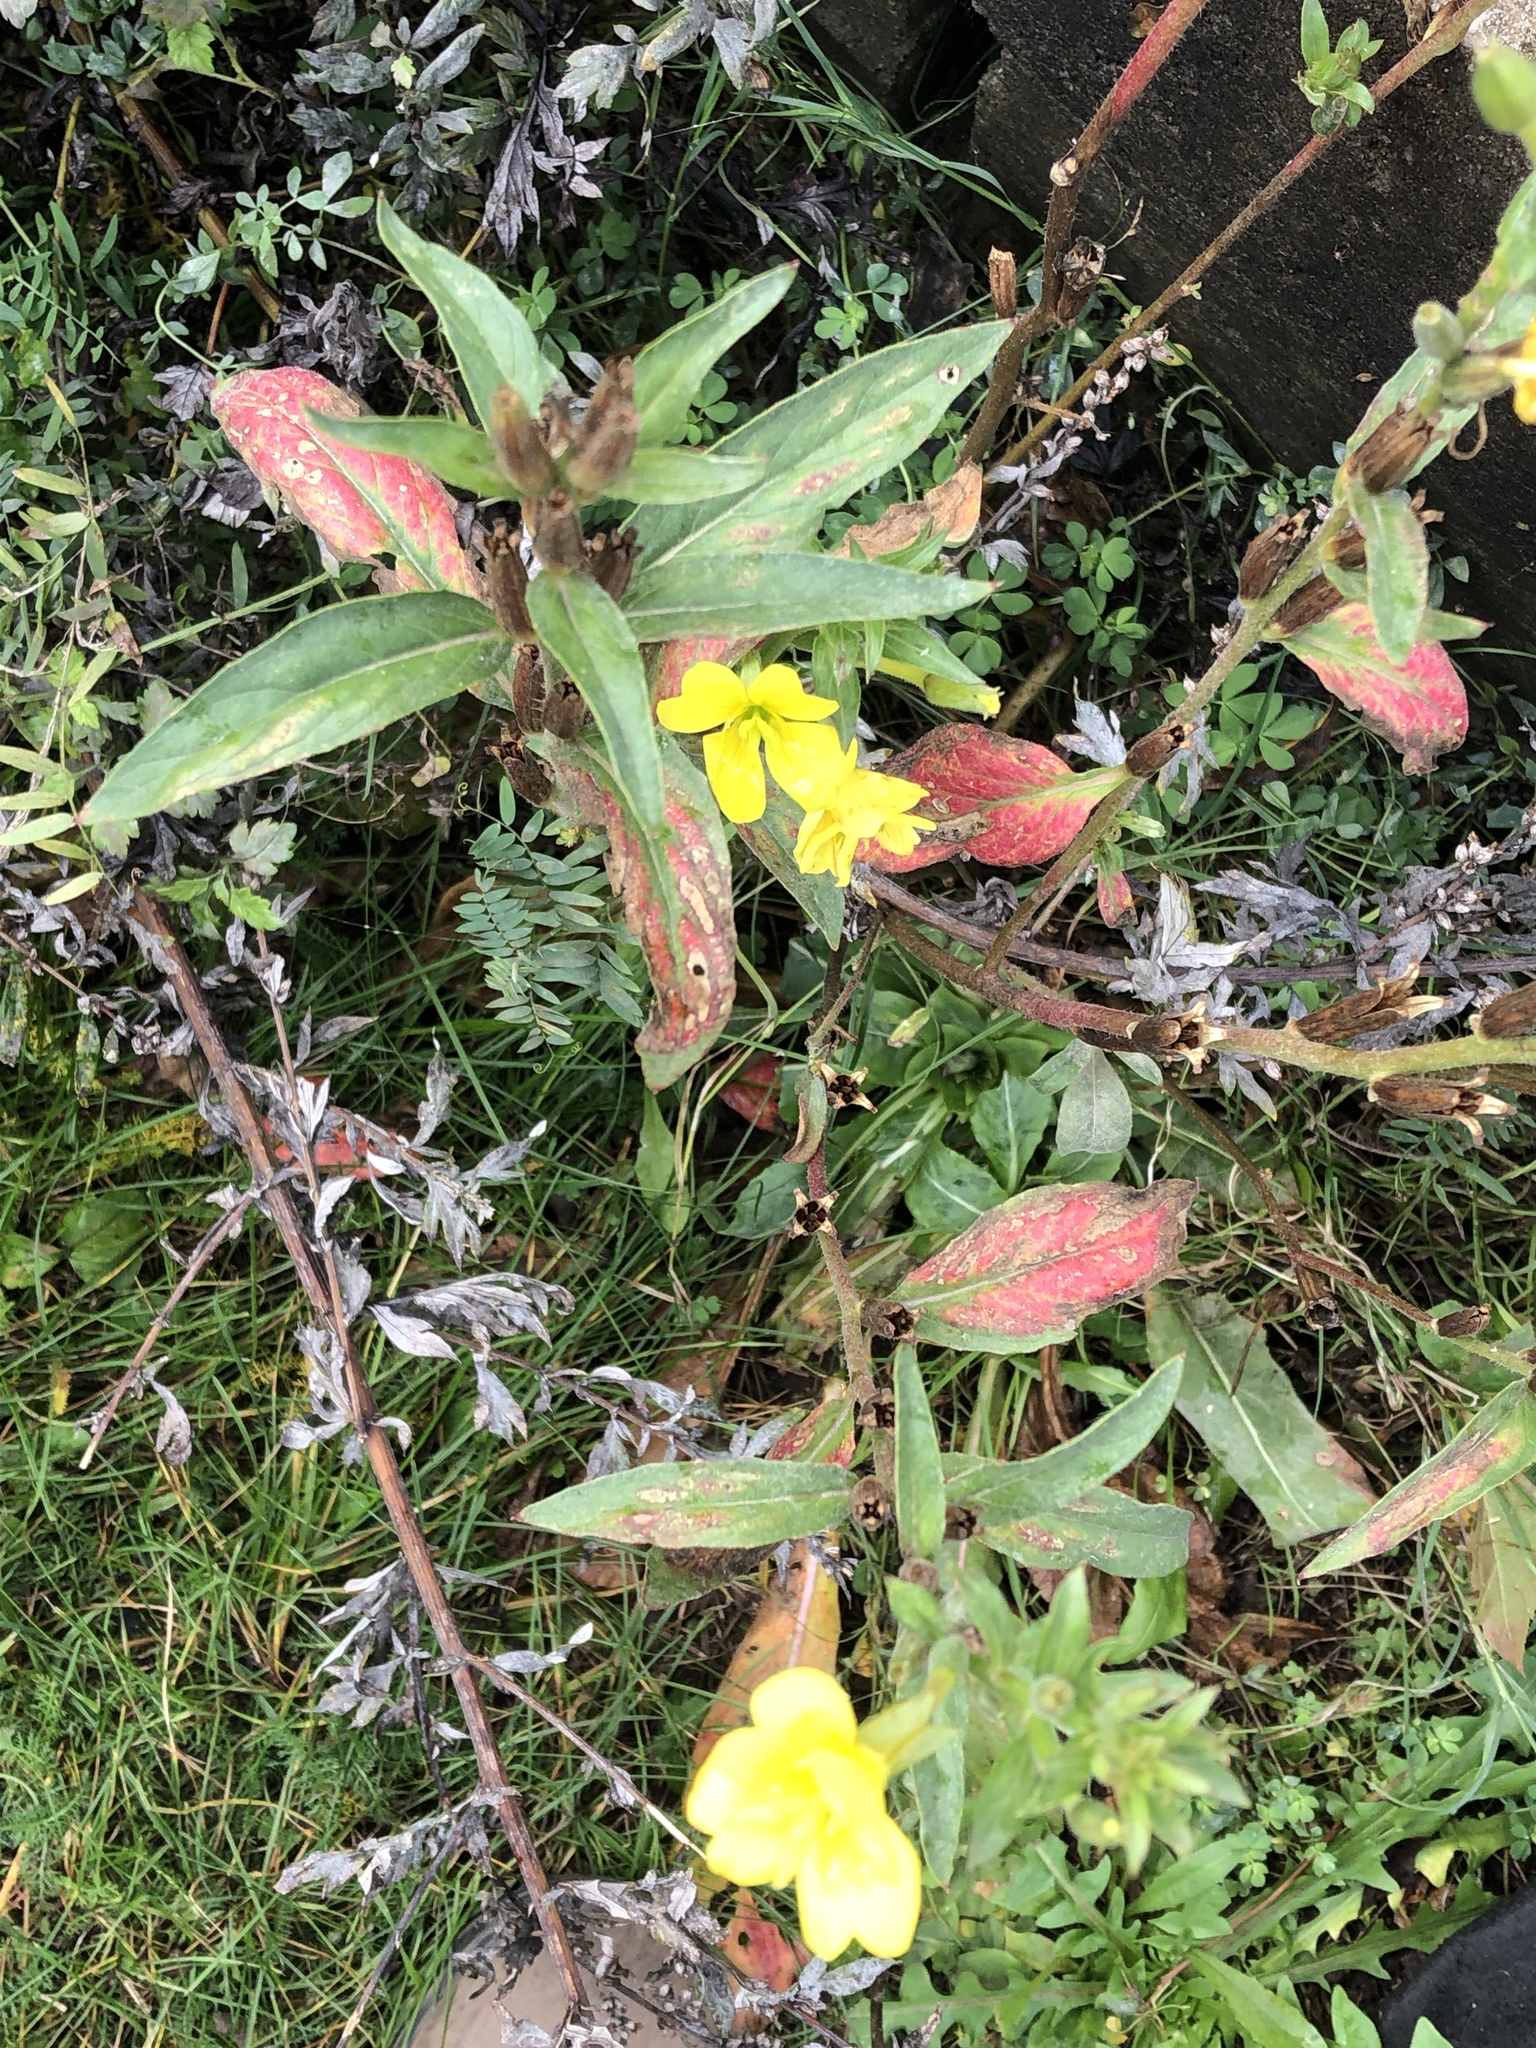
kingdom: Plantae
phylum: Tracheophyta
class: Magnoliopsida
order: Myrtales
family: Onagraceae
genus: Oenothera
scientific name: Oenothera parviflora
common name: Least evening-primrose
